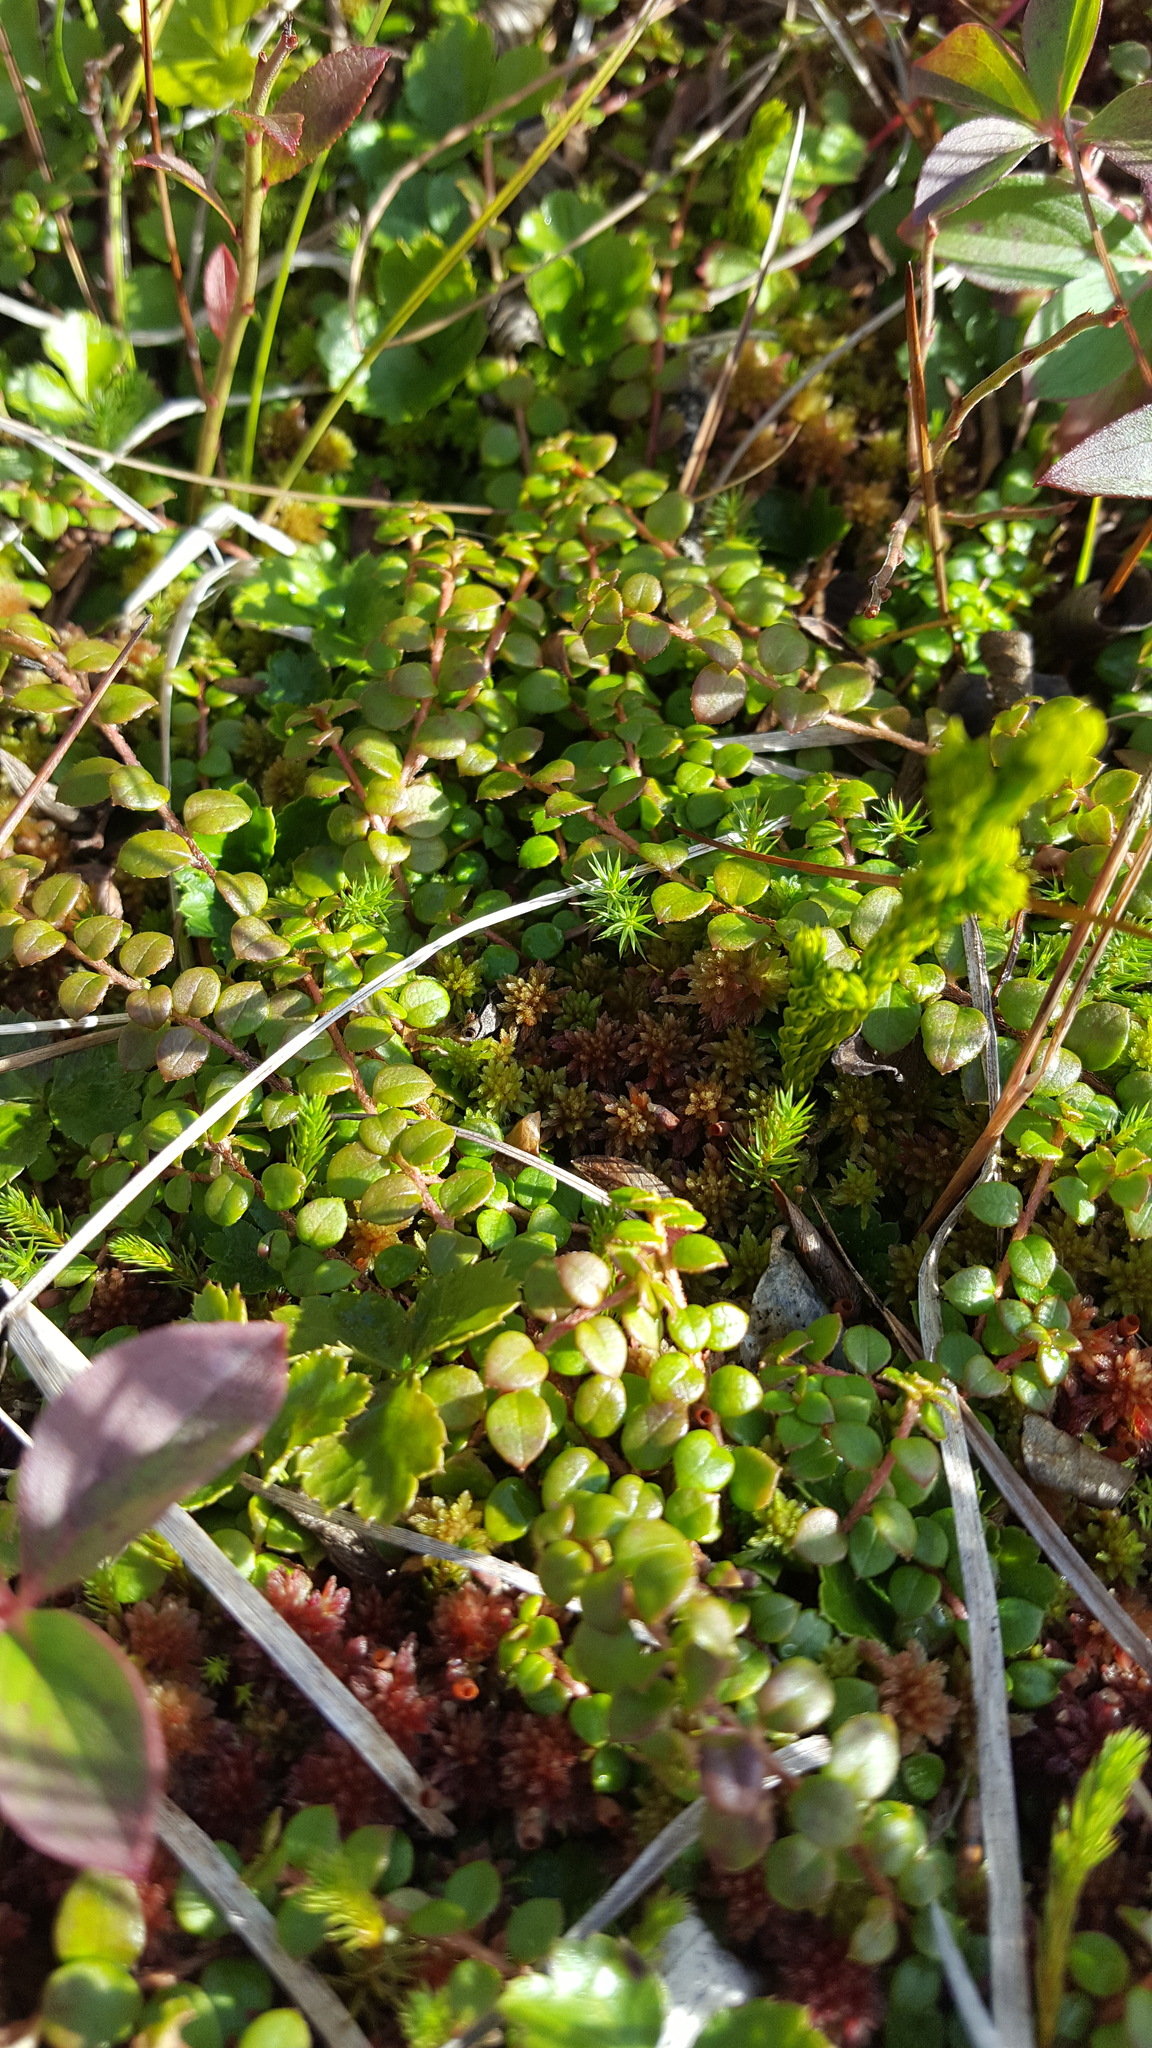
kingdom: Plantae
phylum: Tracheophyta
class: Magnoliopsida
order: Ericales
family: Ericaceae
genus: Gaultheria
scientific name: Gaultheria hispidula
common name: Cancer wintergreen
